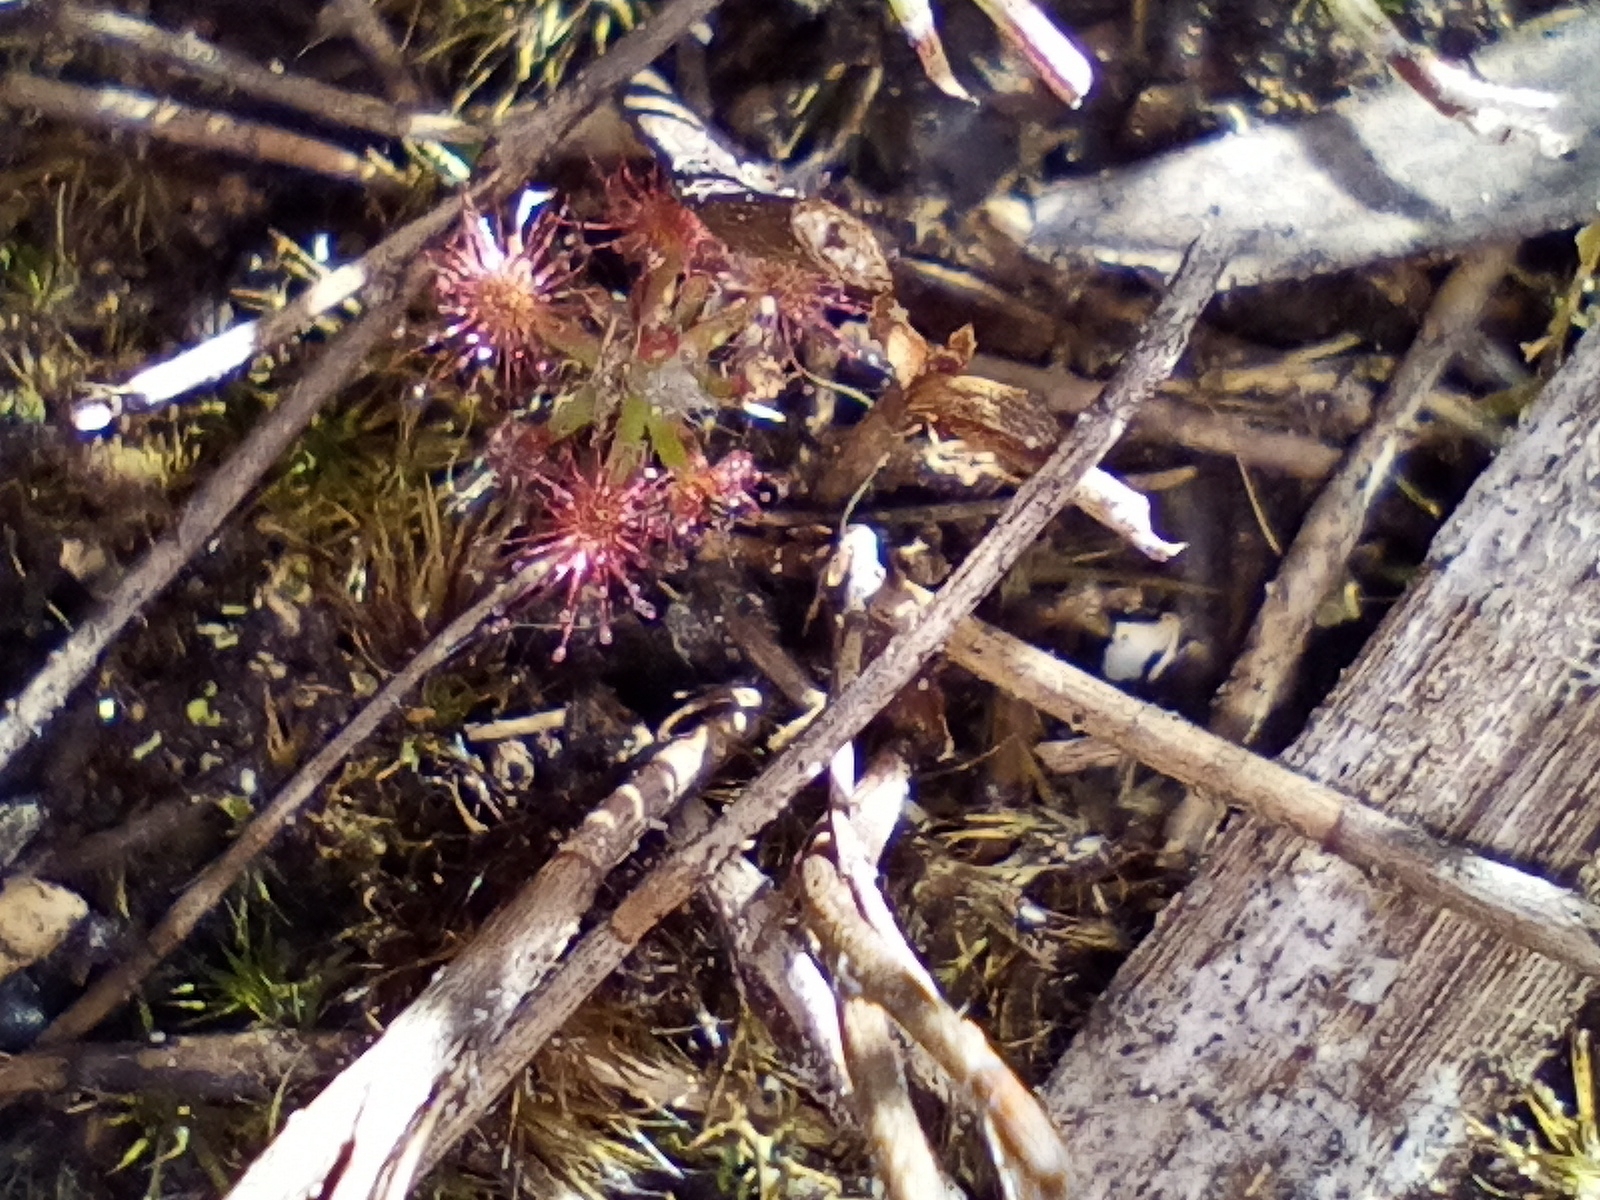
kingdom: Plantae
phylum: Tracheophyta
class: Magnoliopsida
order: Caryophyllales
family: Droseraceae
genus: Drosera
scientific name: Drosera paleacea
